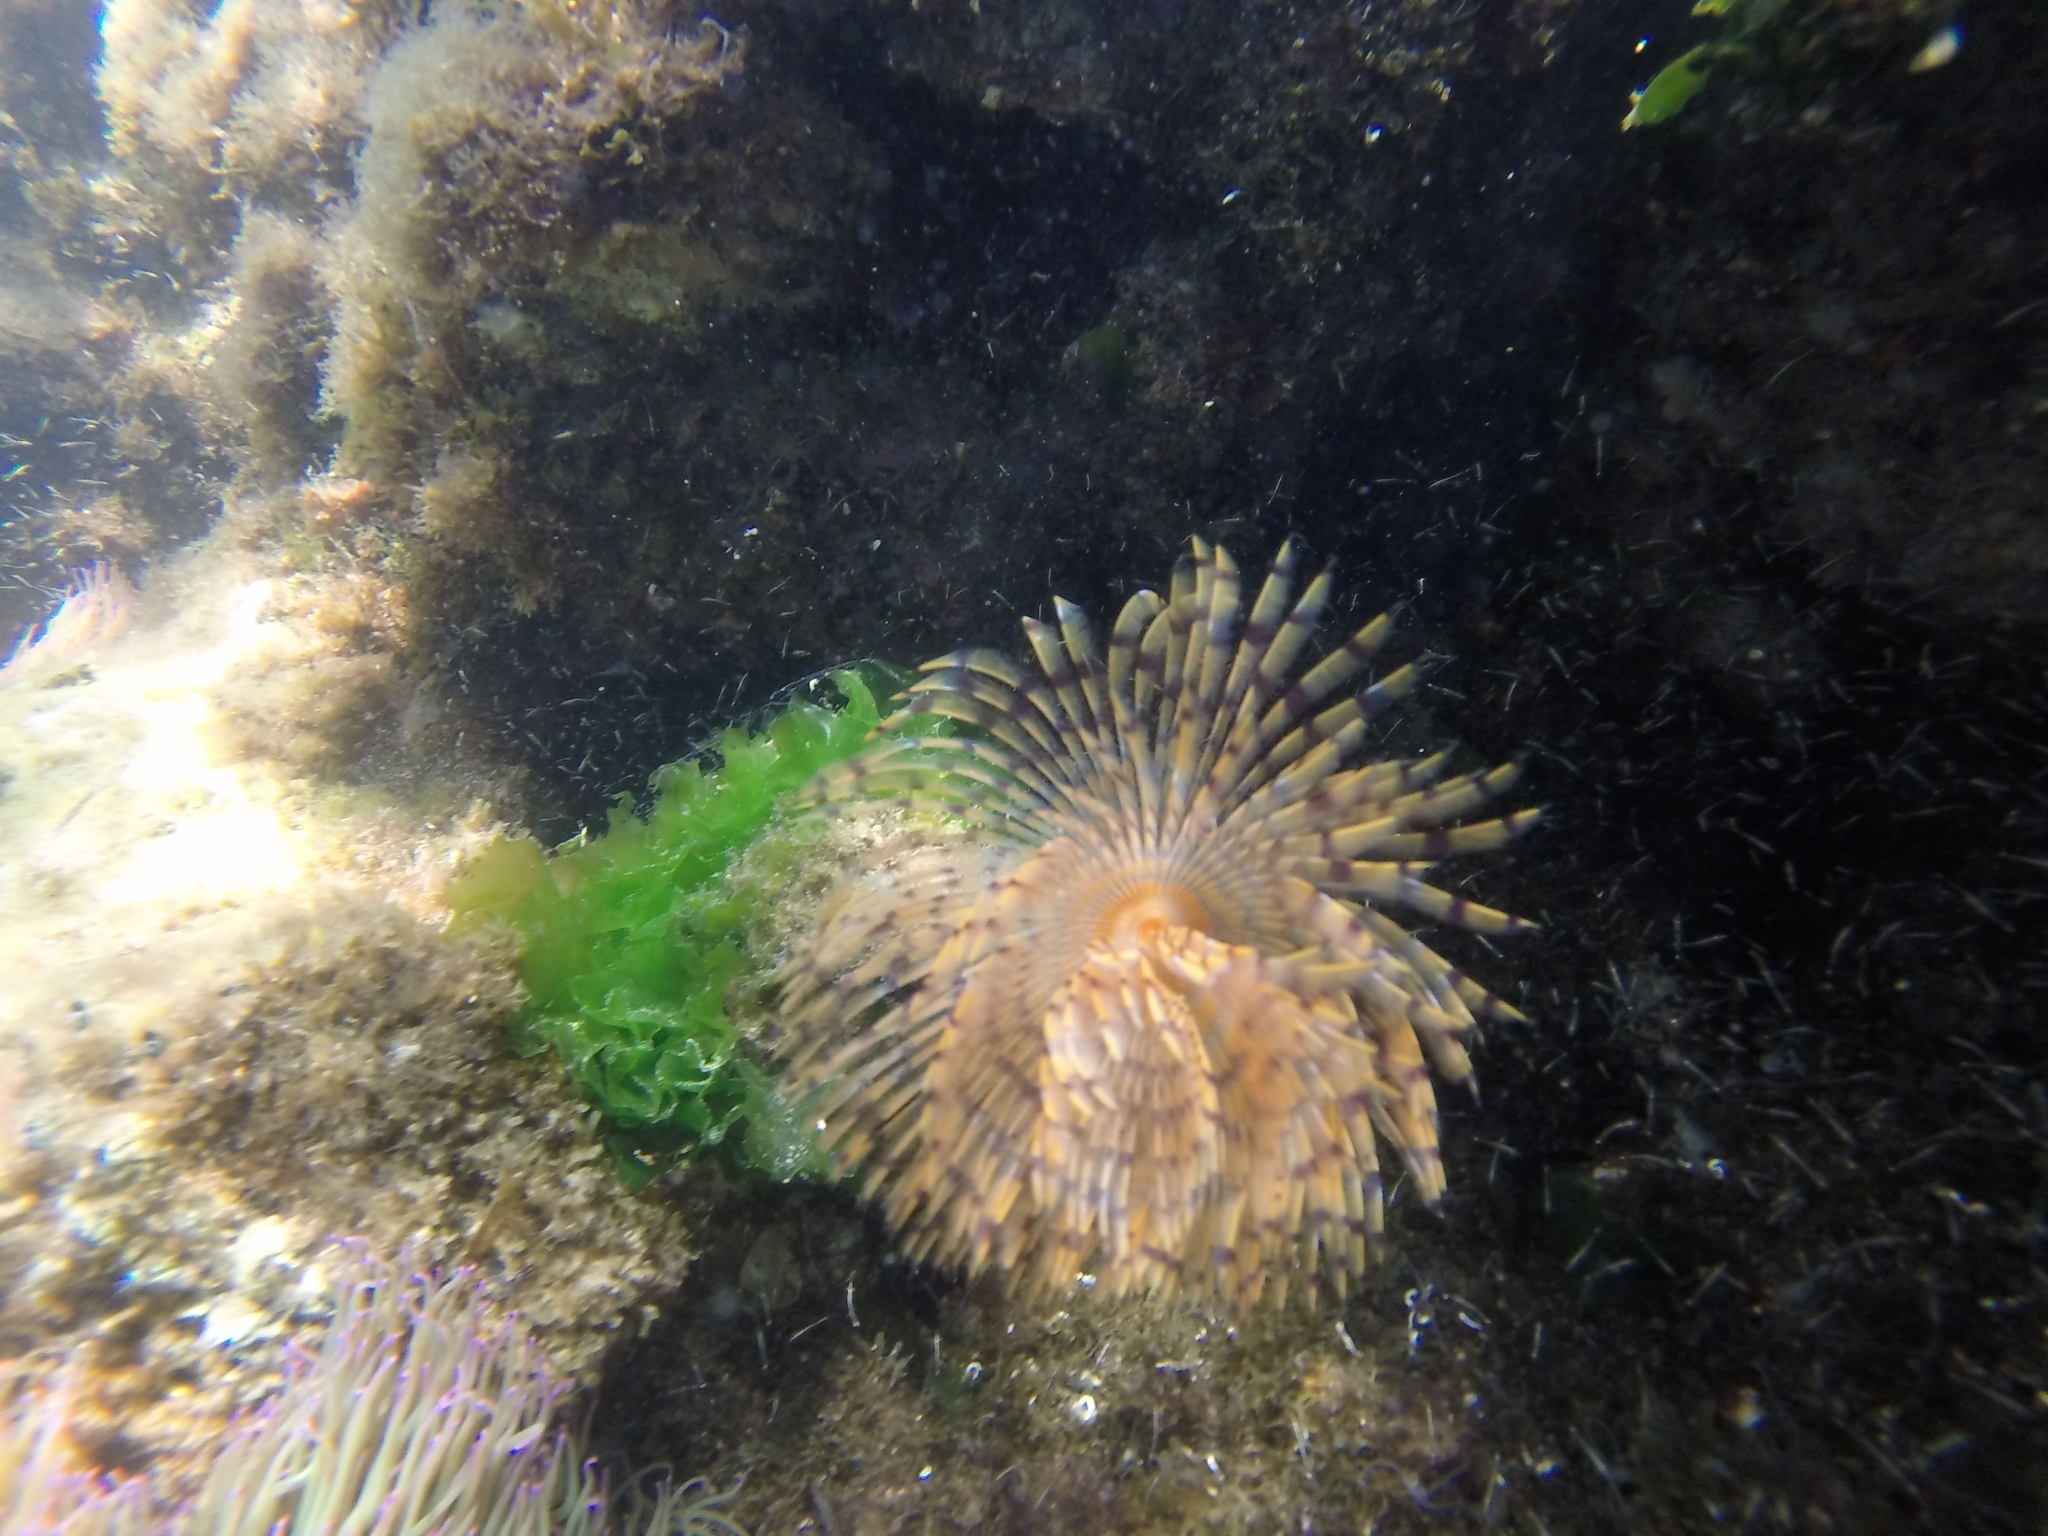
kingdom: Animalia
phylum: Annelida
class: Polychaeta
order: Sabellida
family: Sabellidae
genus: Sabella
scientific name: Sabella spallanzanii
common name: Feather duster worm
